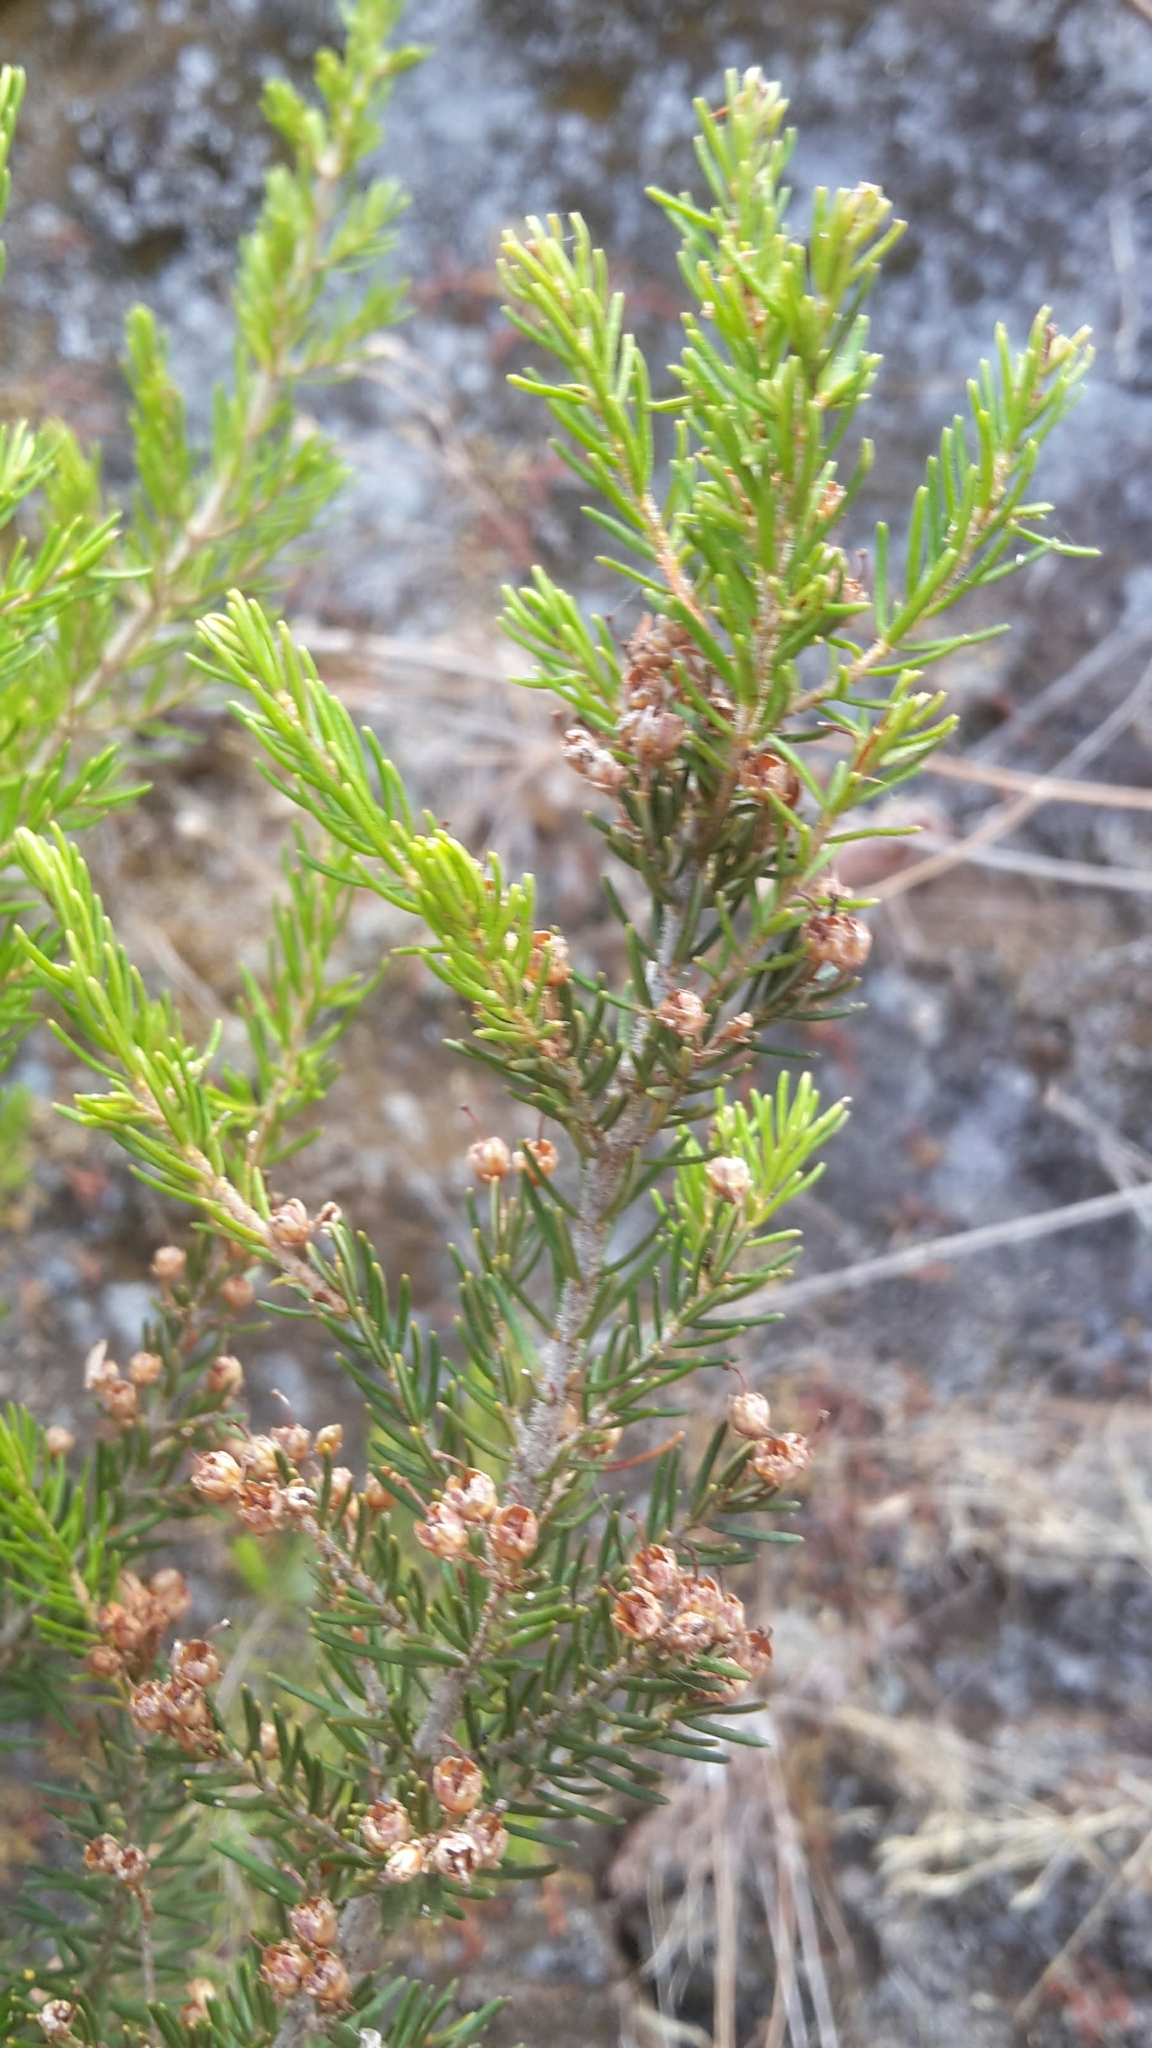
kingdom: Plantae
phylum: Tracheophyta
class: Magnoliopsida
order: Ericales
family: Ericaceae
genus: Erica
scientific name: Erica canariensis
